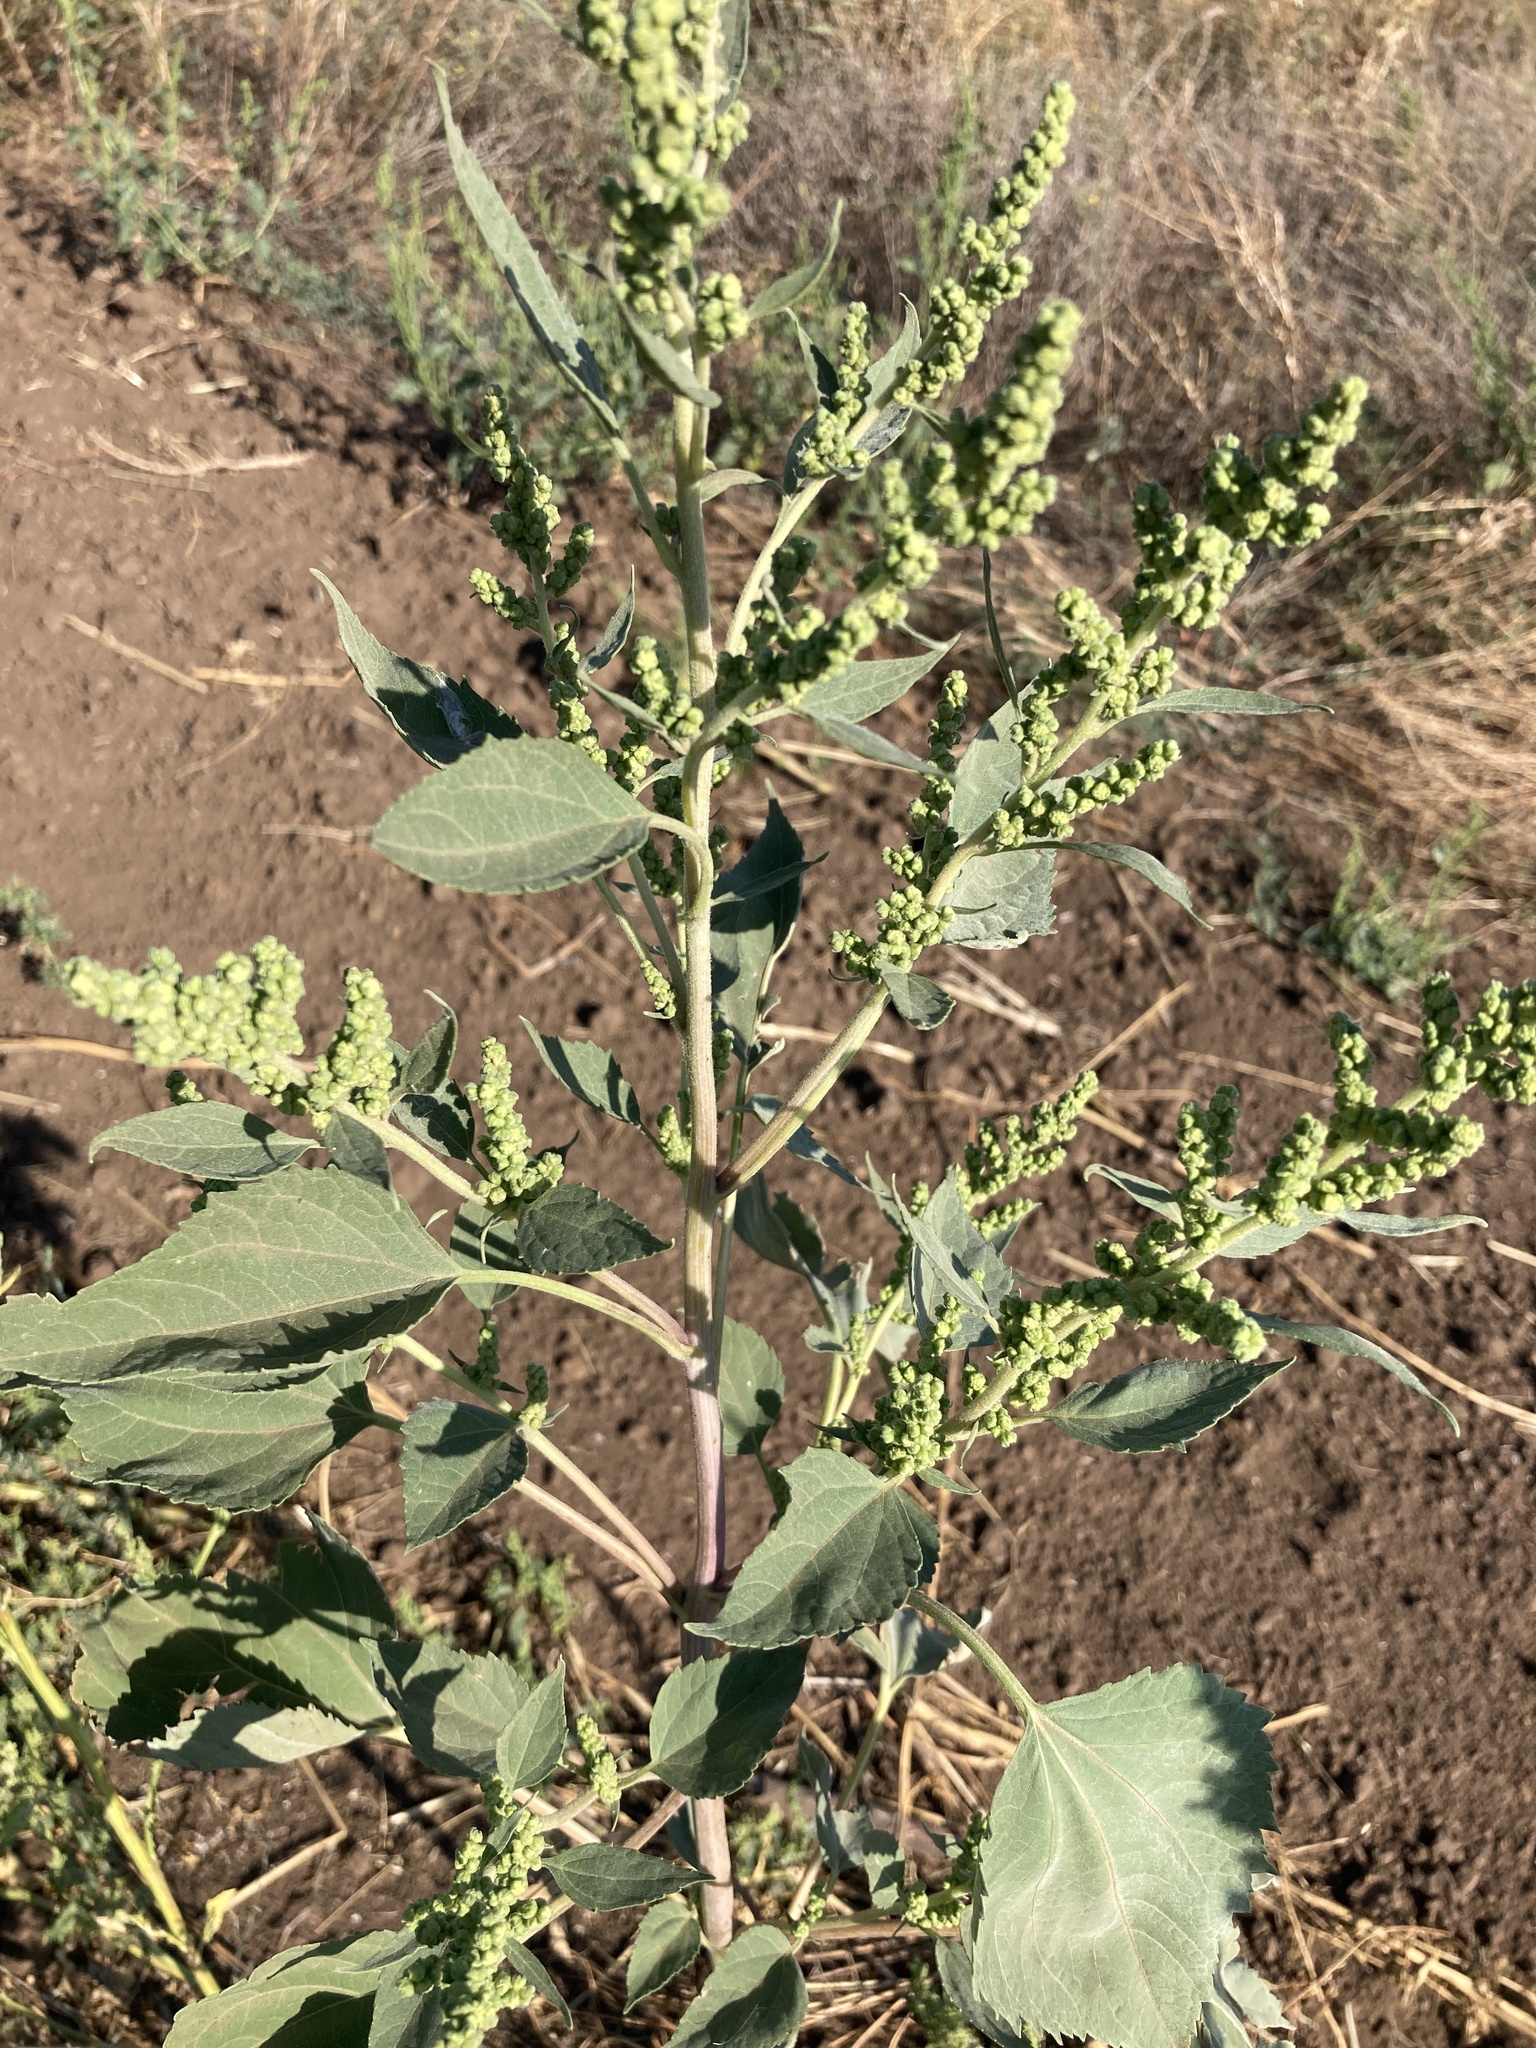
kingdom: Plantae
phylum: Tracheophyta
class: Magnoliopsida
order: Asterales
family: Asteraceae
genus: Cyclachaena
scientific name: Cyclachaena xanthiifolia
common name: Giant sumpweed
